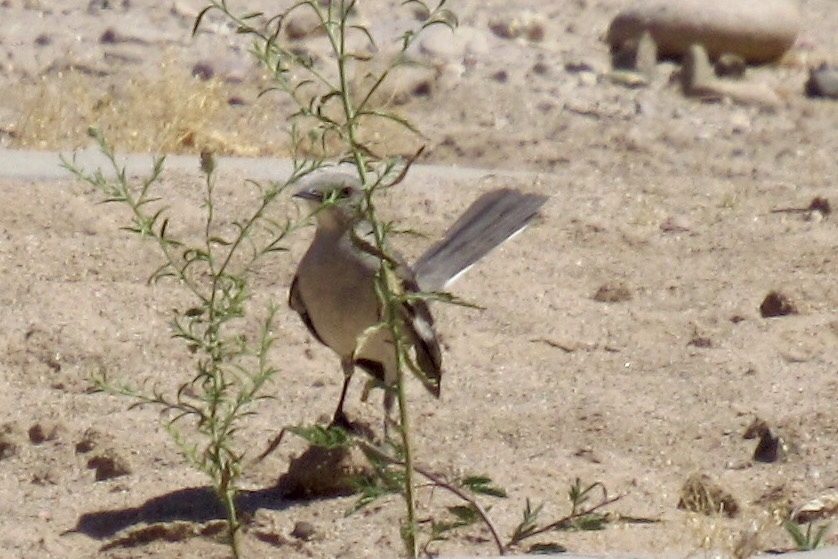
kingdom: Animalia
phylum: Chordata
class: Aves
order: Passeriformes
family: Mimidae
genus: Mimus
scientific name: Mimus polyglottos
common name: Northern mockingbird
